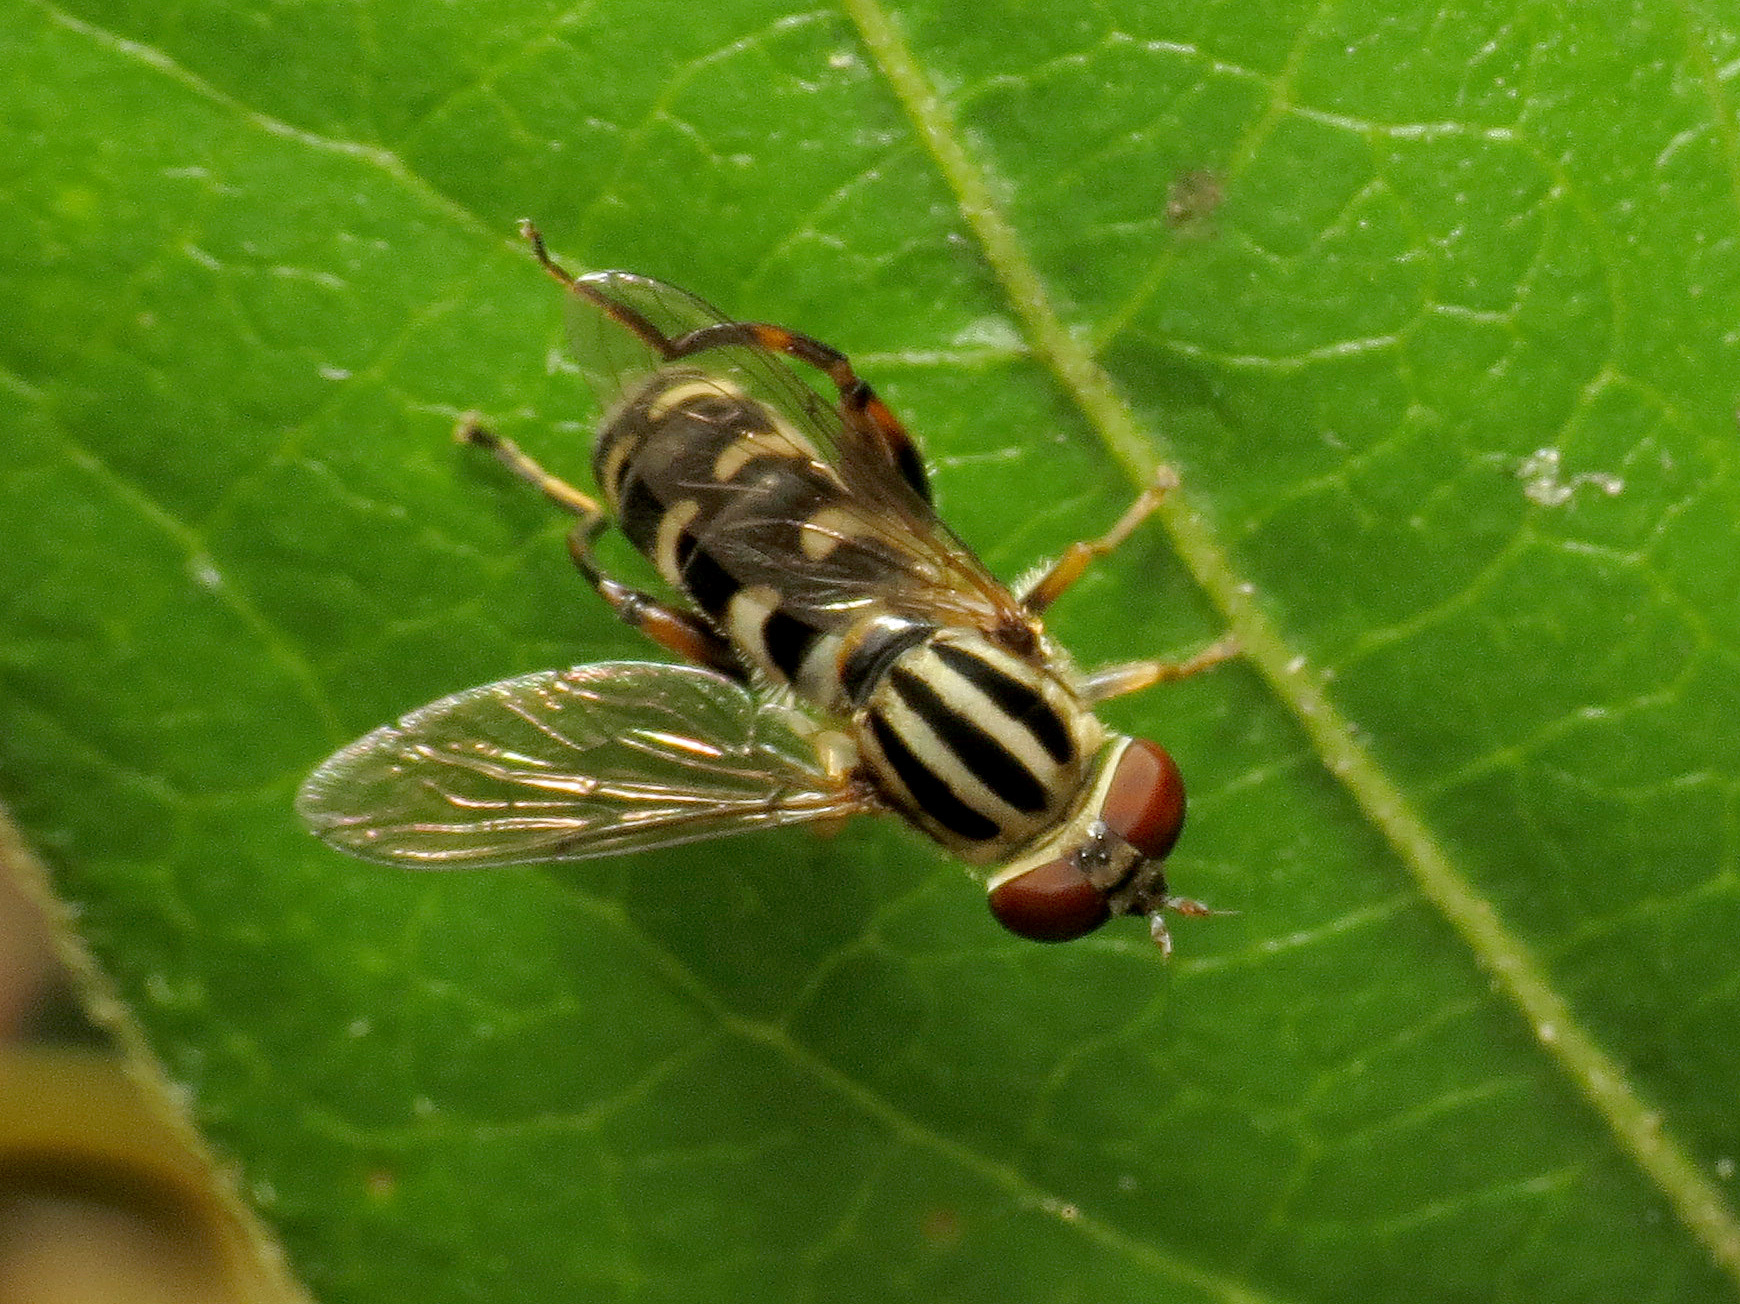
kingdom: Animalia
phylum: Arthropoda
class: Insecta
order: Diptera
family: Syrphidae
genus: Anasimyia
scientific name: Anasimyia
